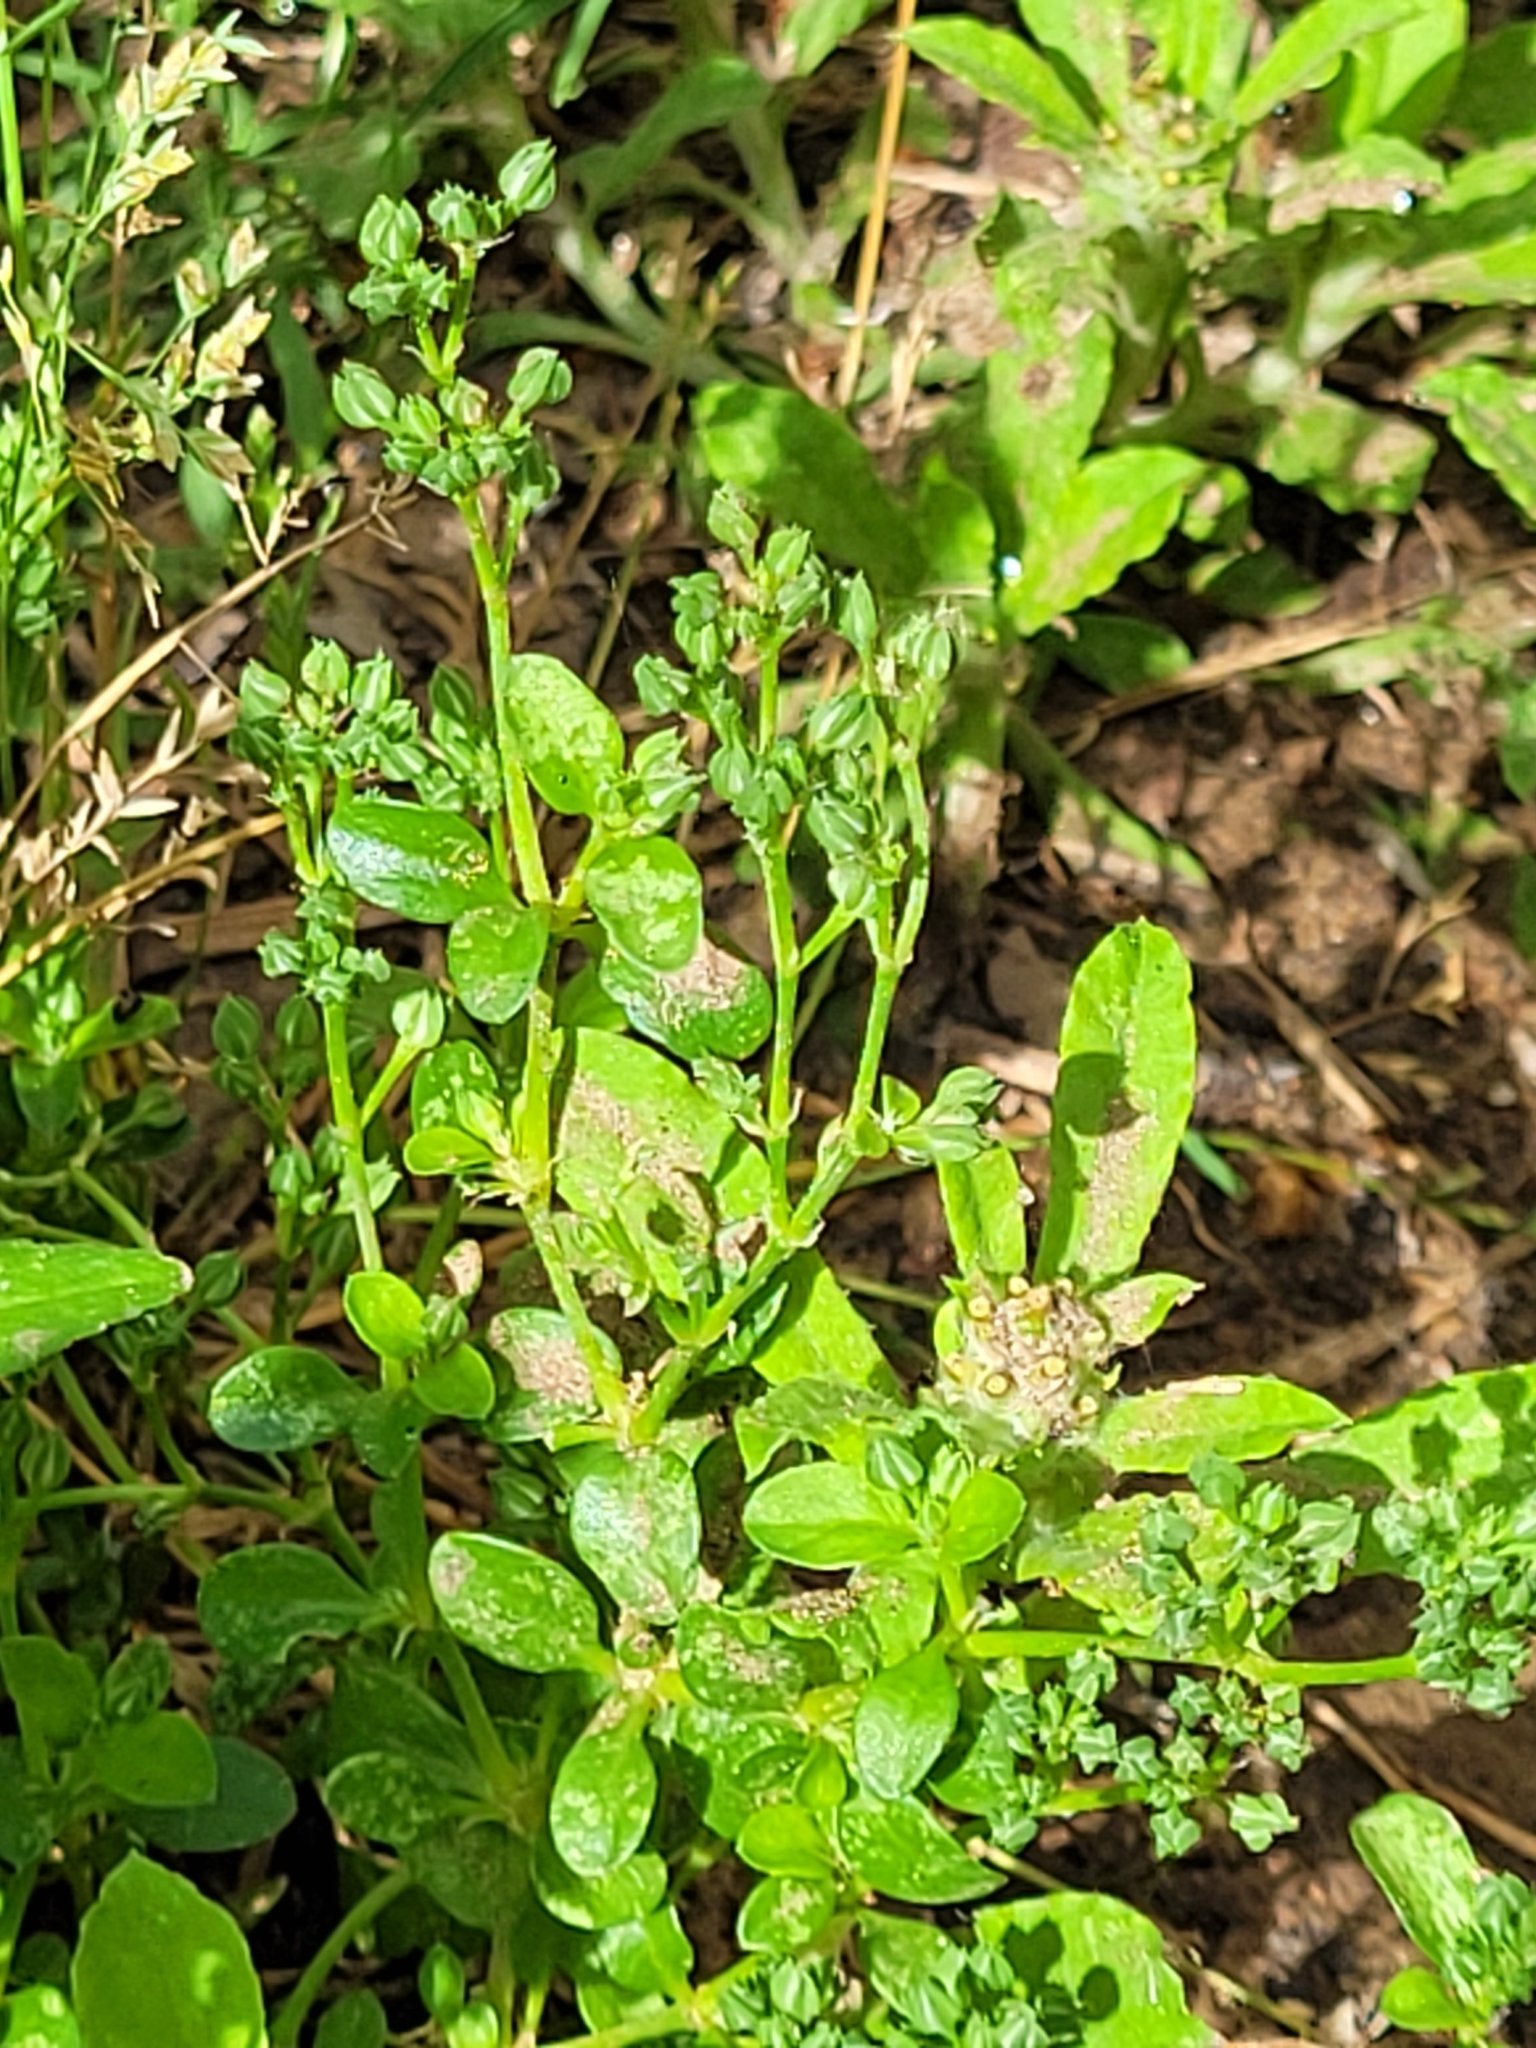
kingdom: Plantae
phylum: Tracheophyta
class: Magnoliopsida
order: Caryophyllales
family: Caryophyllaceae
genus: Polycarpon
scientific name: Polycarpon tetraphyllum
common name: Four-leaved all-seed
